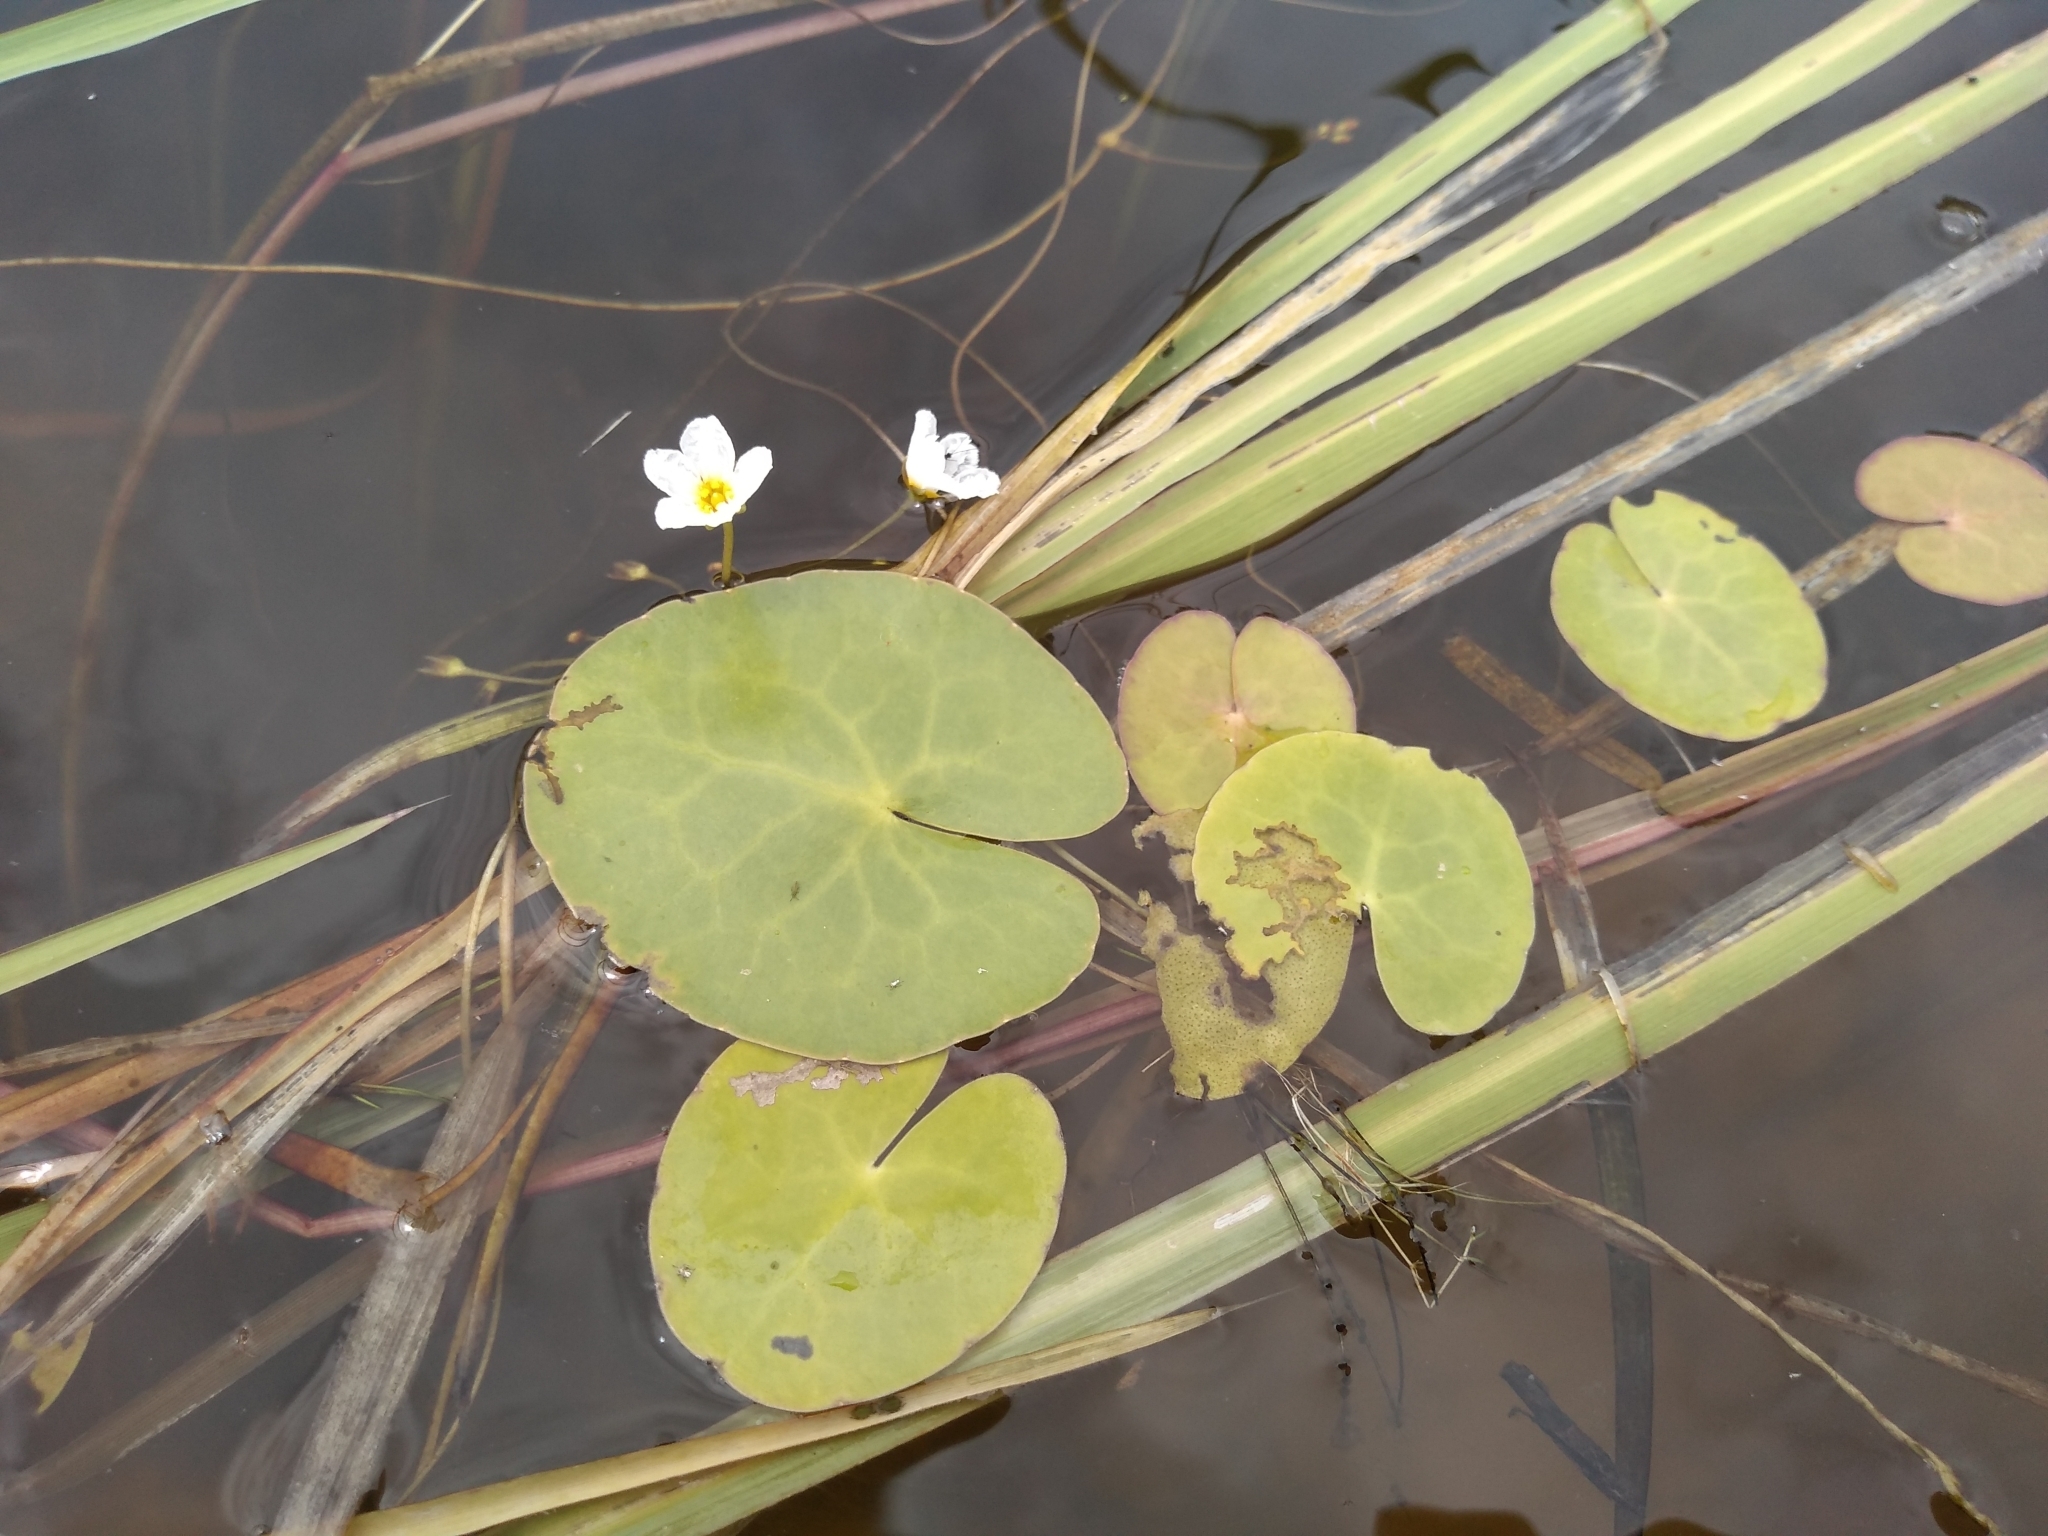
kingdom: Plantae
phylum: Tracheophyta
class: Magnoliopsida
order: Asterales
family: Menyanthaceae
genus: Nymphoides
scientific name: Nymphoides cordata
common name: Eight-angled floatingheart
